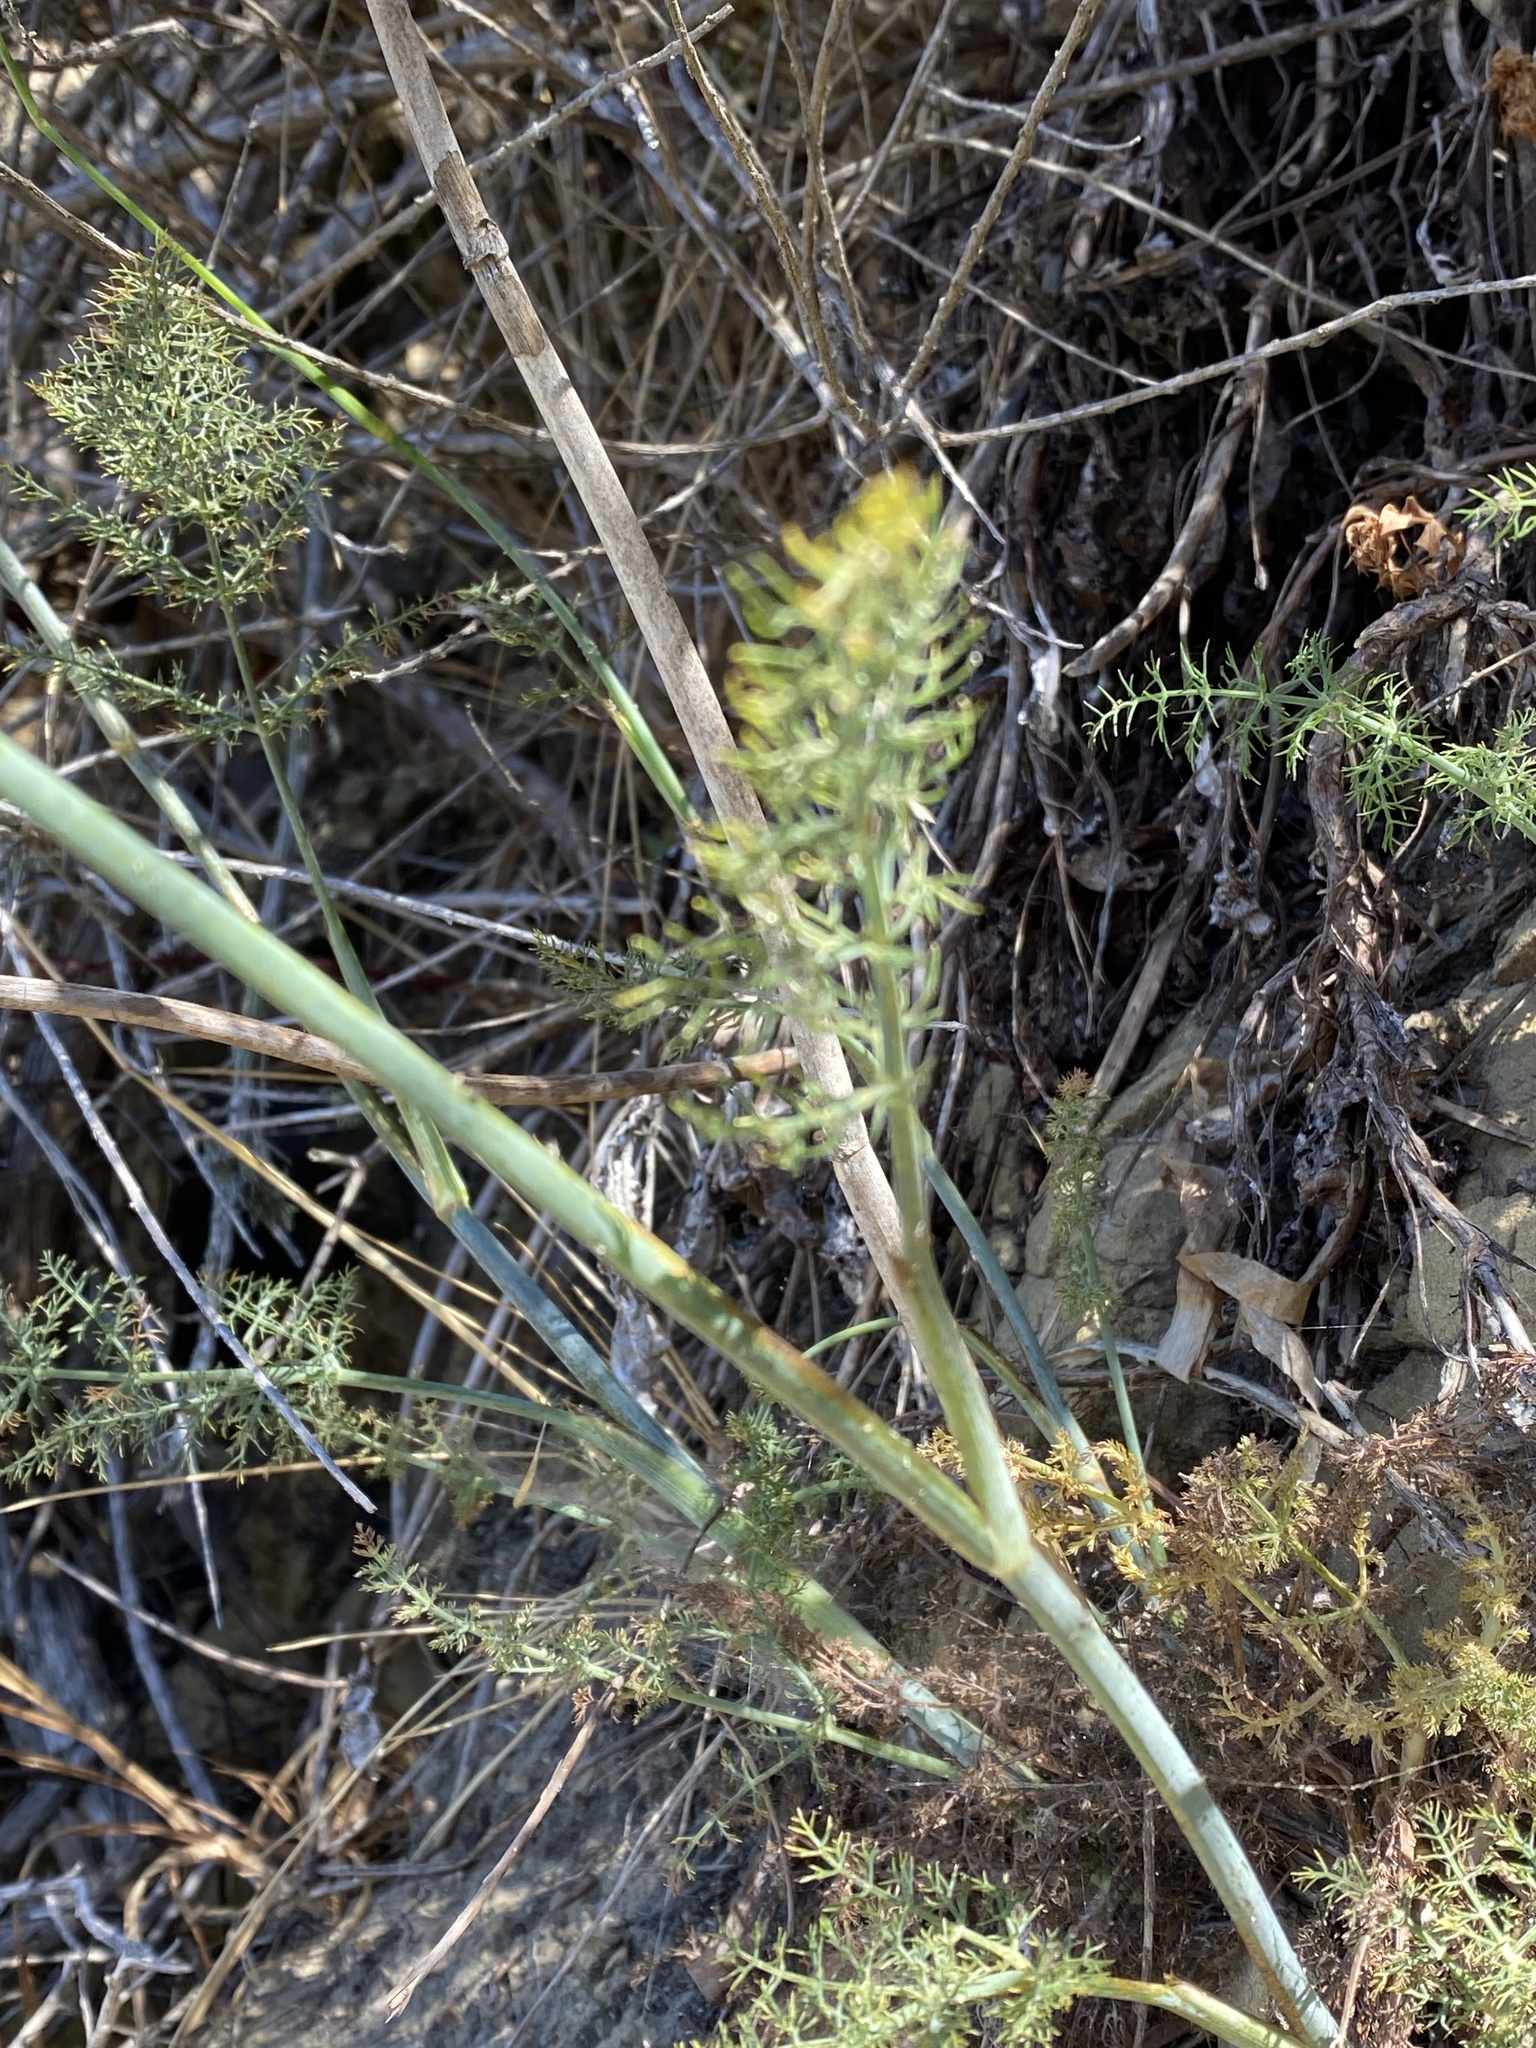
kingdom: Plantae
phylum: Tracheophyta
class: Magnoliopsida
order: Apiales
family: Apiaceae
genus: Foeniculum
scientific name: Foeniculum vulgare
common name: Fennel
